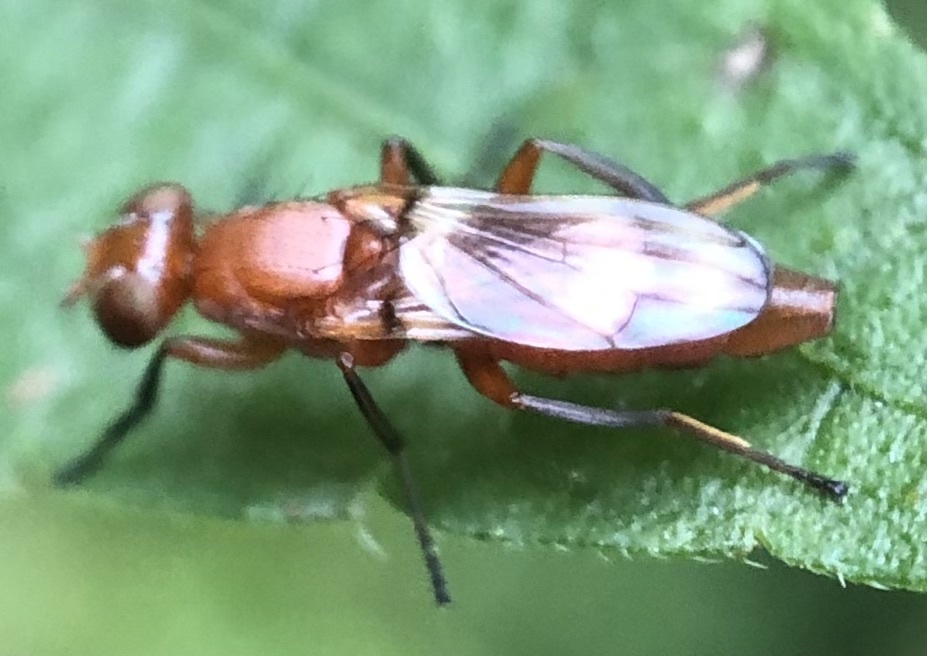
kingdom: Animalia
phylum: Arthropoda
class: Insecta
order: Diptera
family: Ulidiidae
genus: Zacompsia
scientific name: Zacompsia fulva
